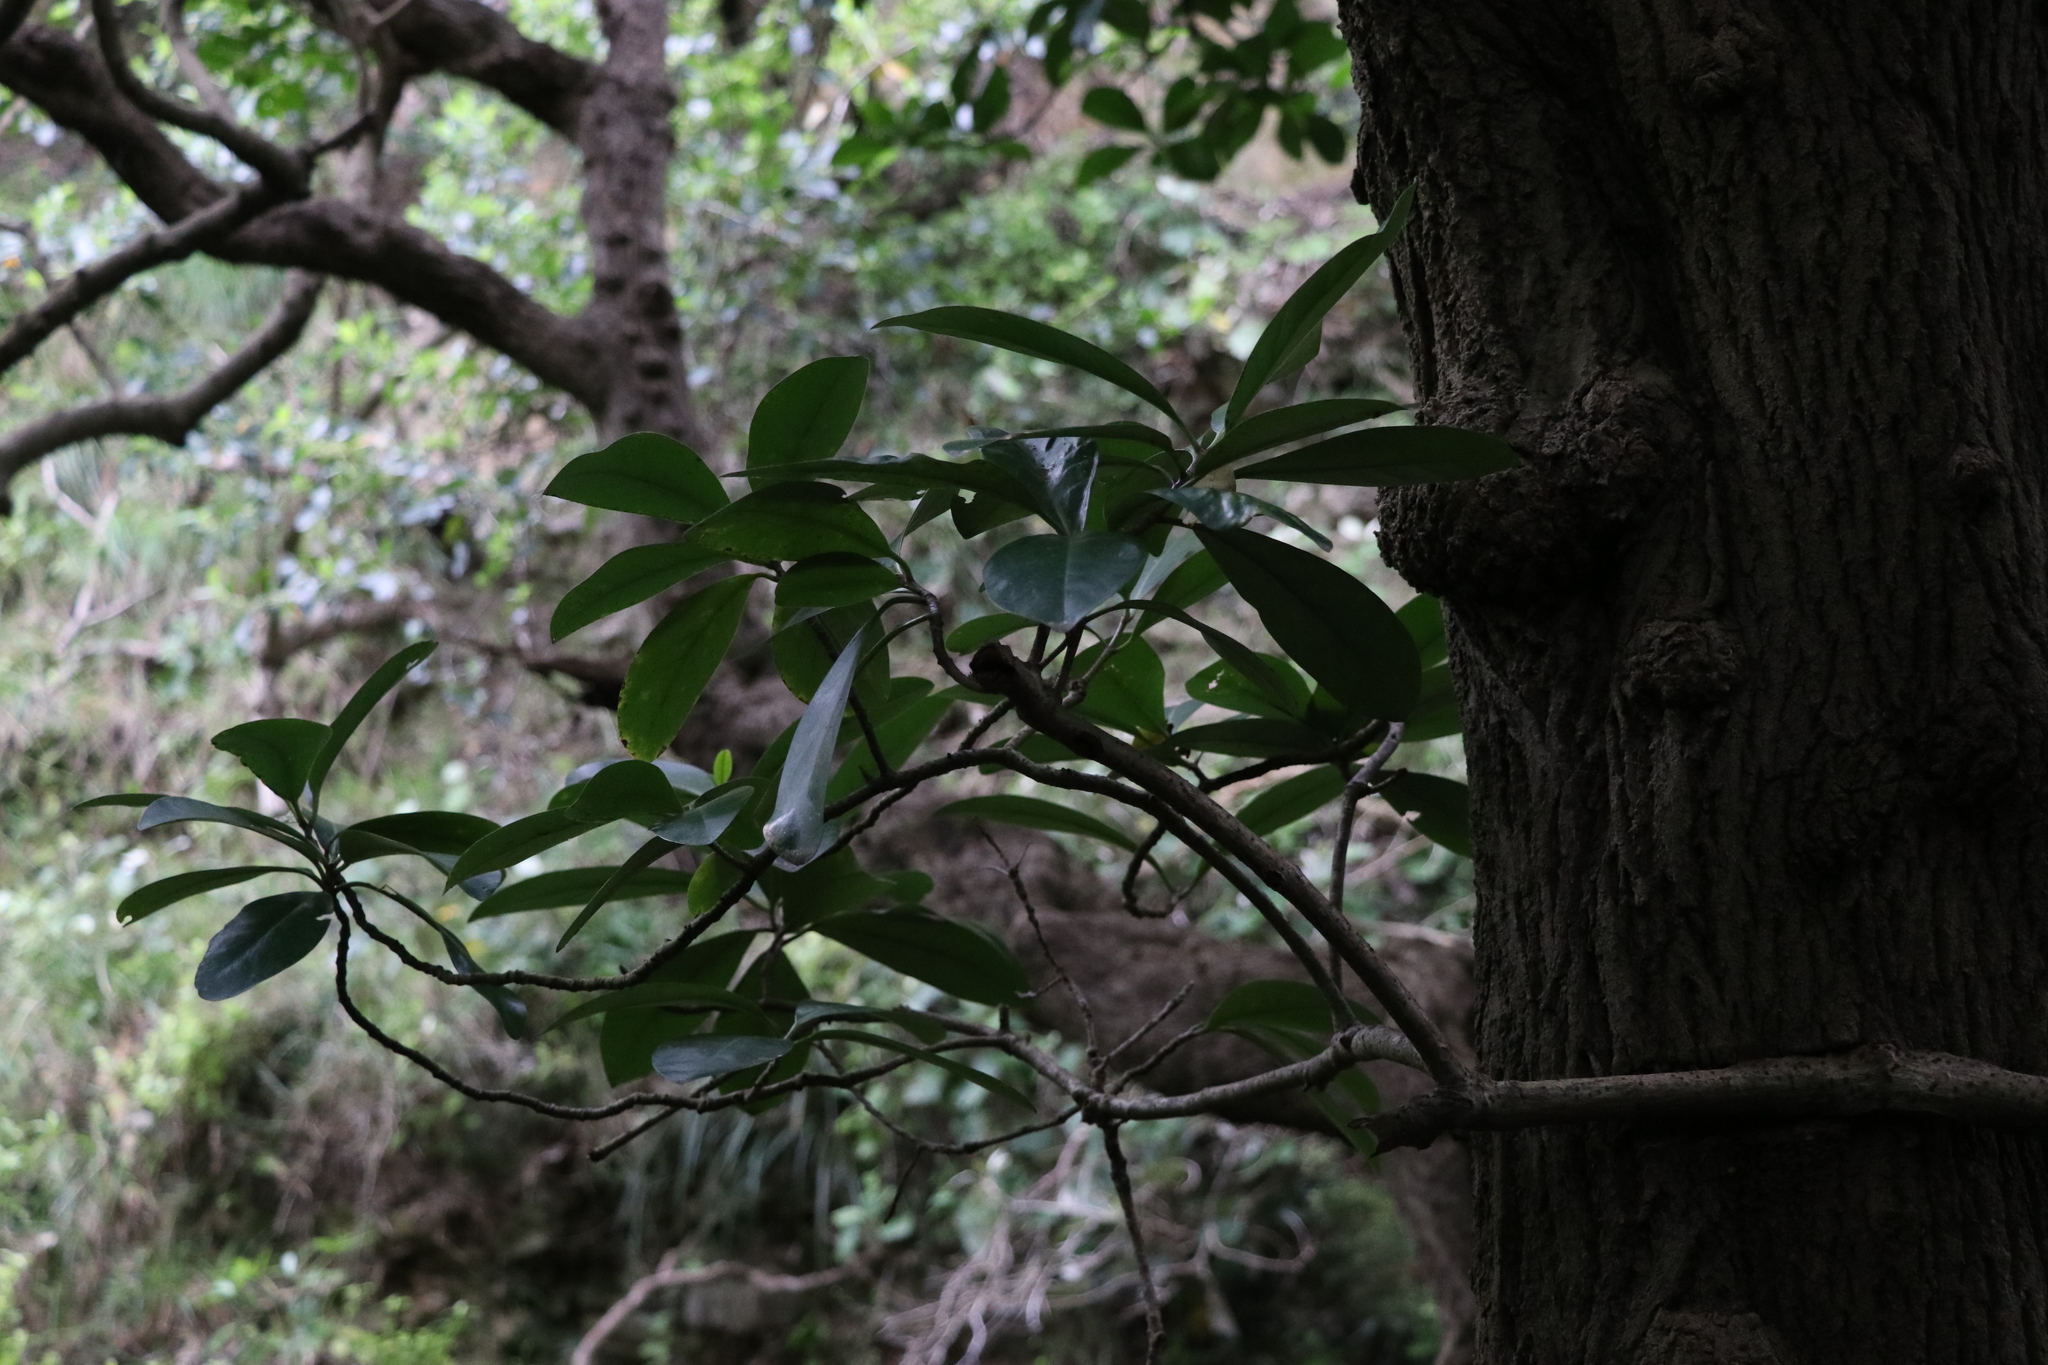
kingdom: Plantae
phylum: Tracheophyta
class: Magnoliopsida
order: Cucurbitales
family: Corynocarpaceae
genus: Corynocarpus
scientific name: Corynocarpus laevigatus
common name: New zealand laurel
